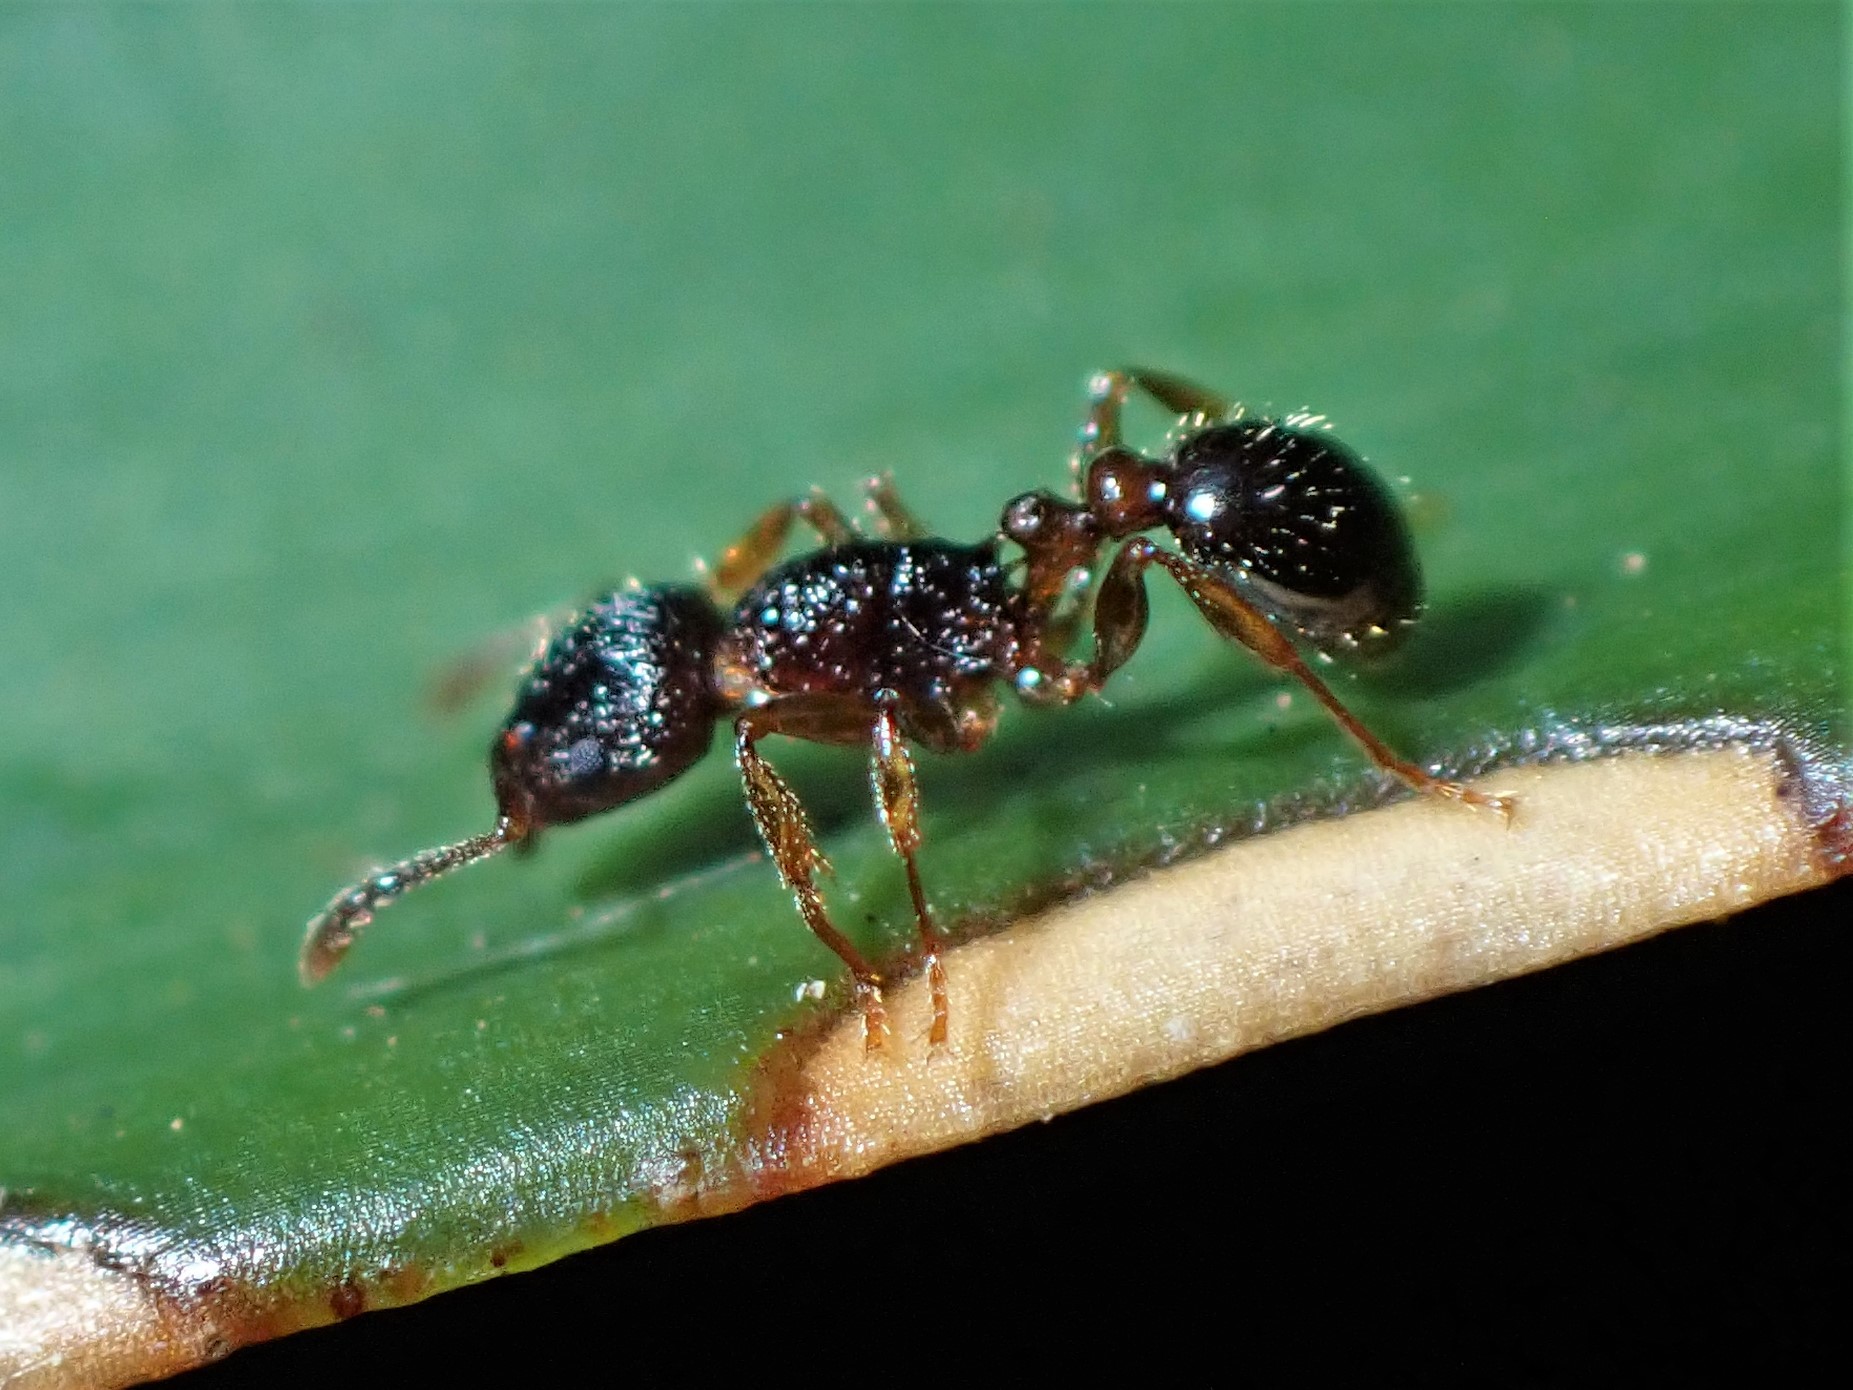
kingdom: Animalia
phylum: Arthropoda
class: Insecta
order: Hymenoptera
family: Formicidae
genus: Tetramorium
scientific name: Tetramorium grassii
